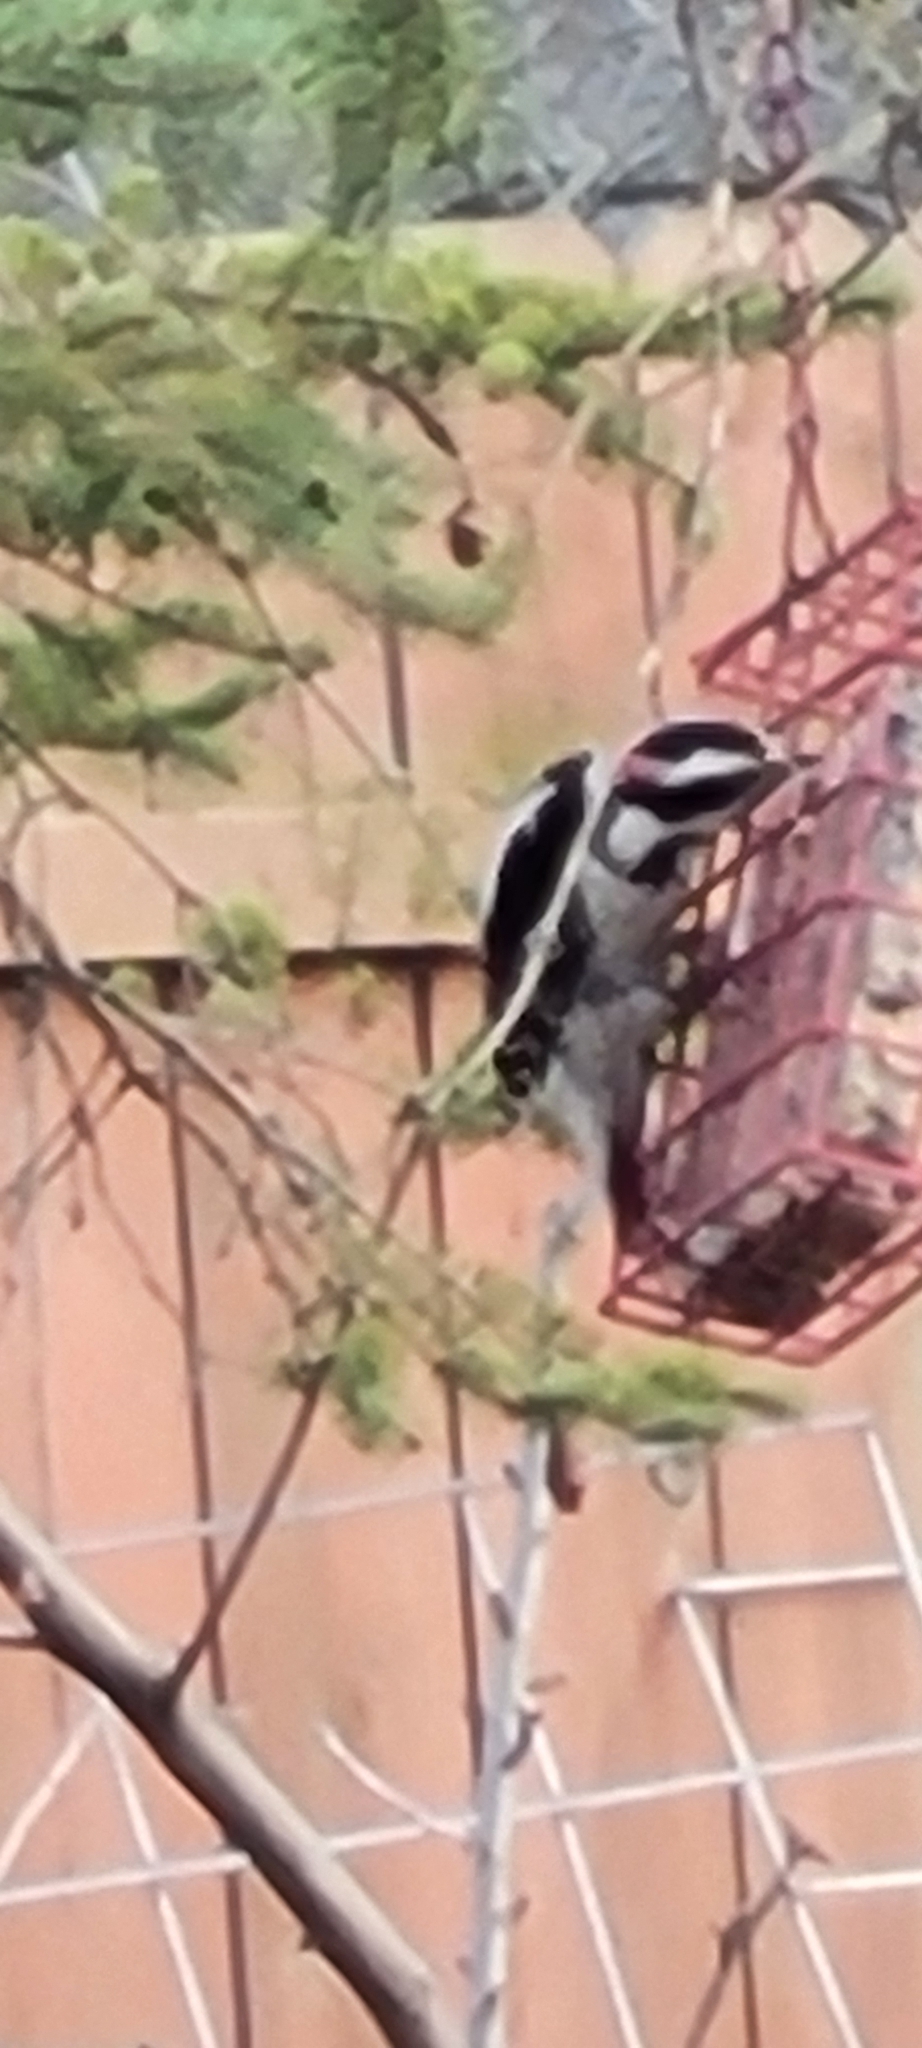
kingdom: Animalia
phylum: Chordata
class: Aves
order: Piciformes
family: Picidae
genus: Dryobates
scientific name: Dryobates pubescens
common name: Downy woodpecker
